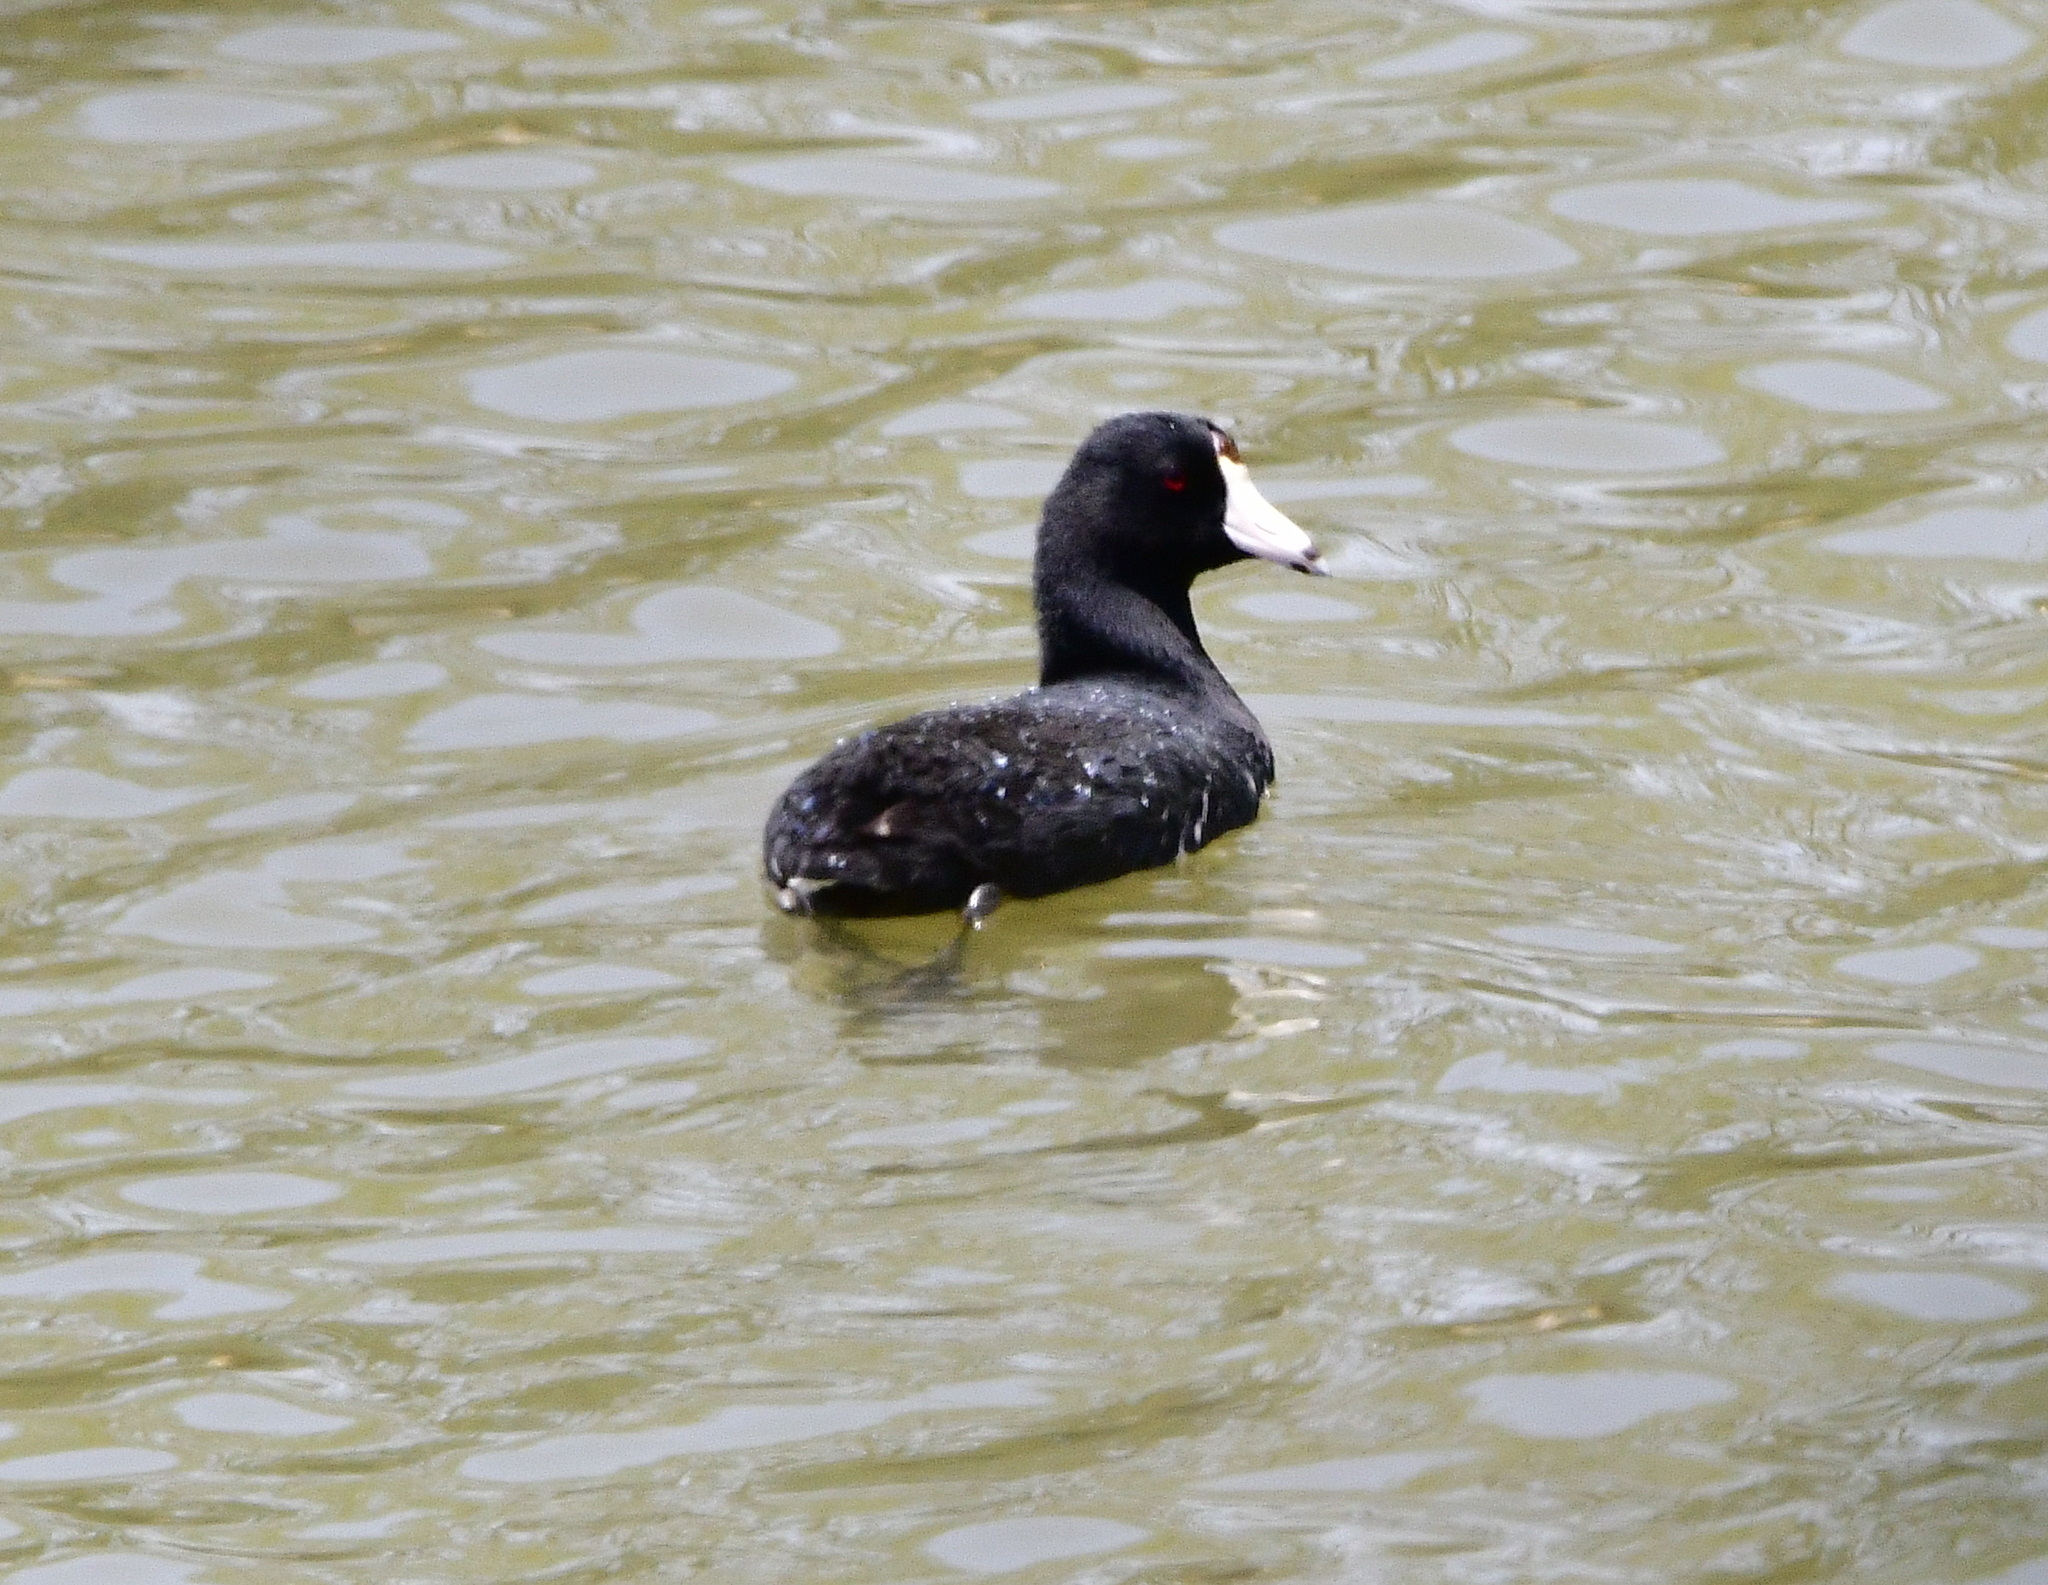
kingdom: Animalia
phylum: Chordata
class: Aves
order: Gruiformes
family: Rallidae
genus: Fulica
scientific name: Fulica americana
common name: American coot
